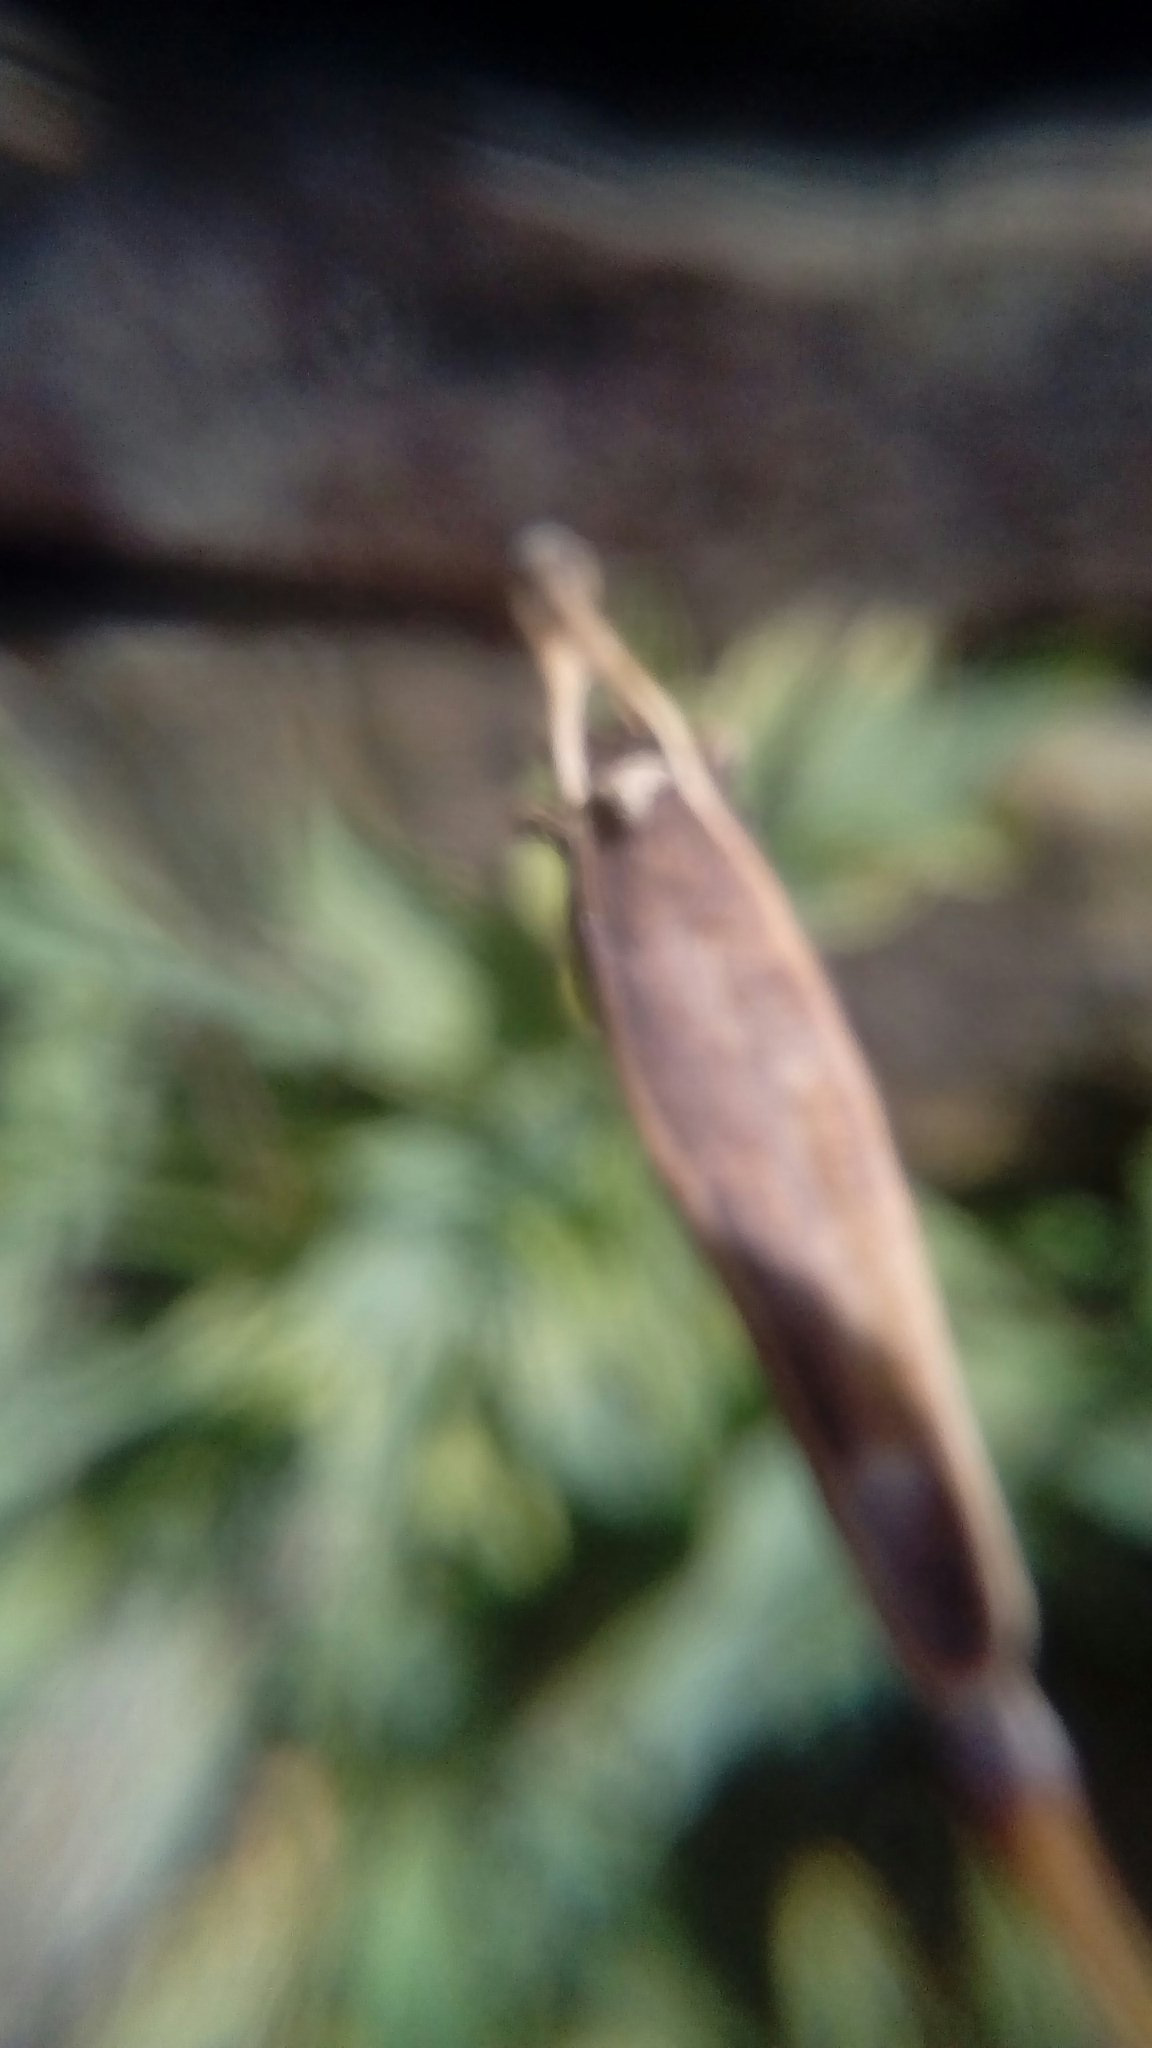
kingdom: Plantae
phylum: Tracheophyta
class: Magnoliopsida
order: Ranunculales
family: Papaveraceae
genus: Papaver
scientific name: Papaver cambricum
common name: Poppy
